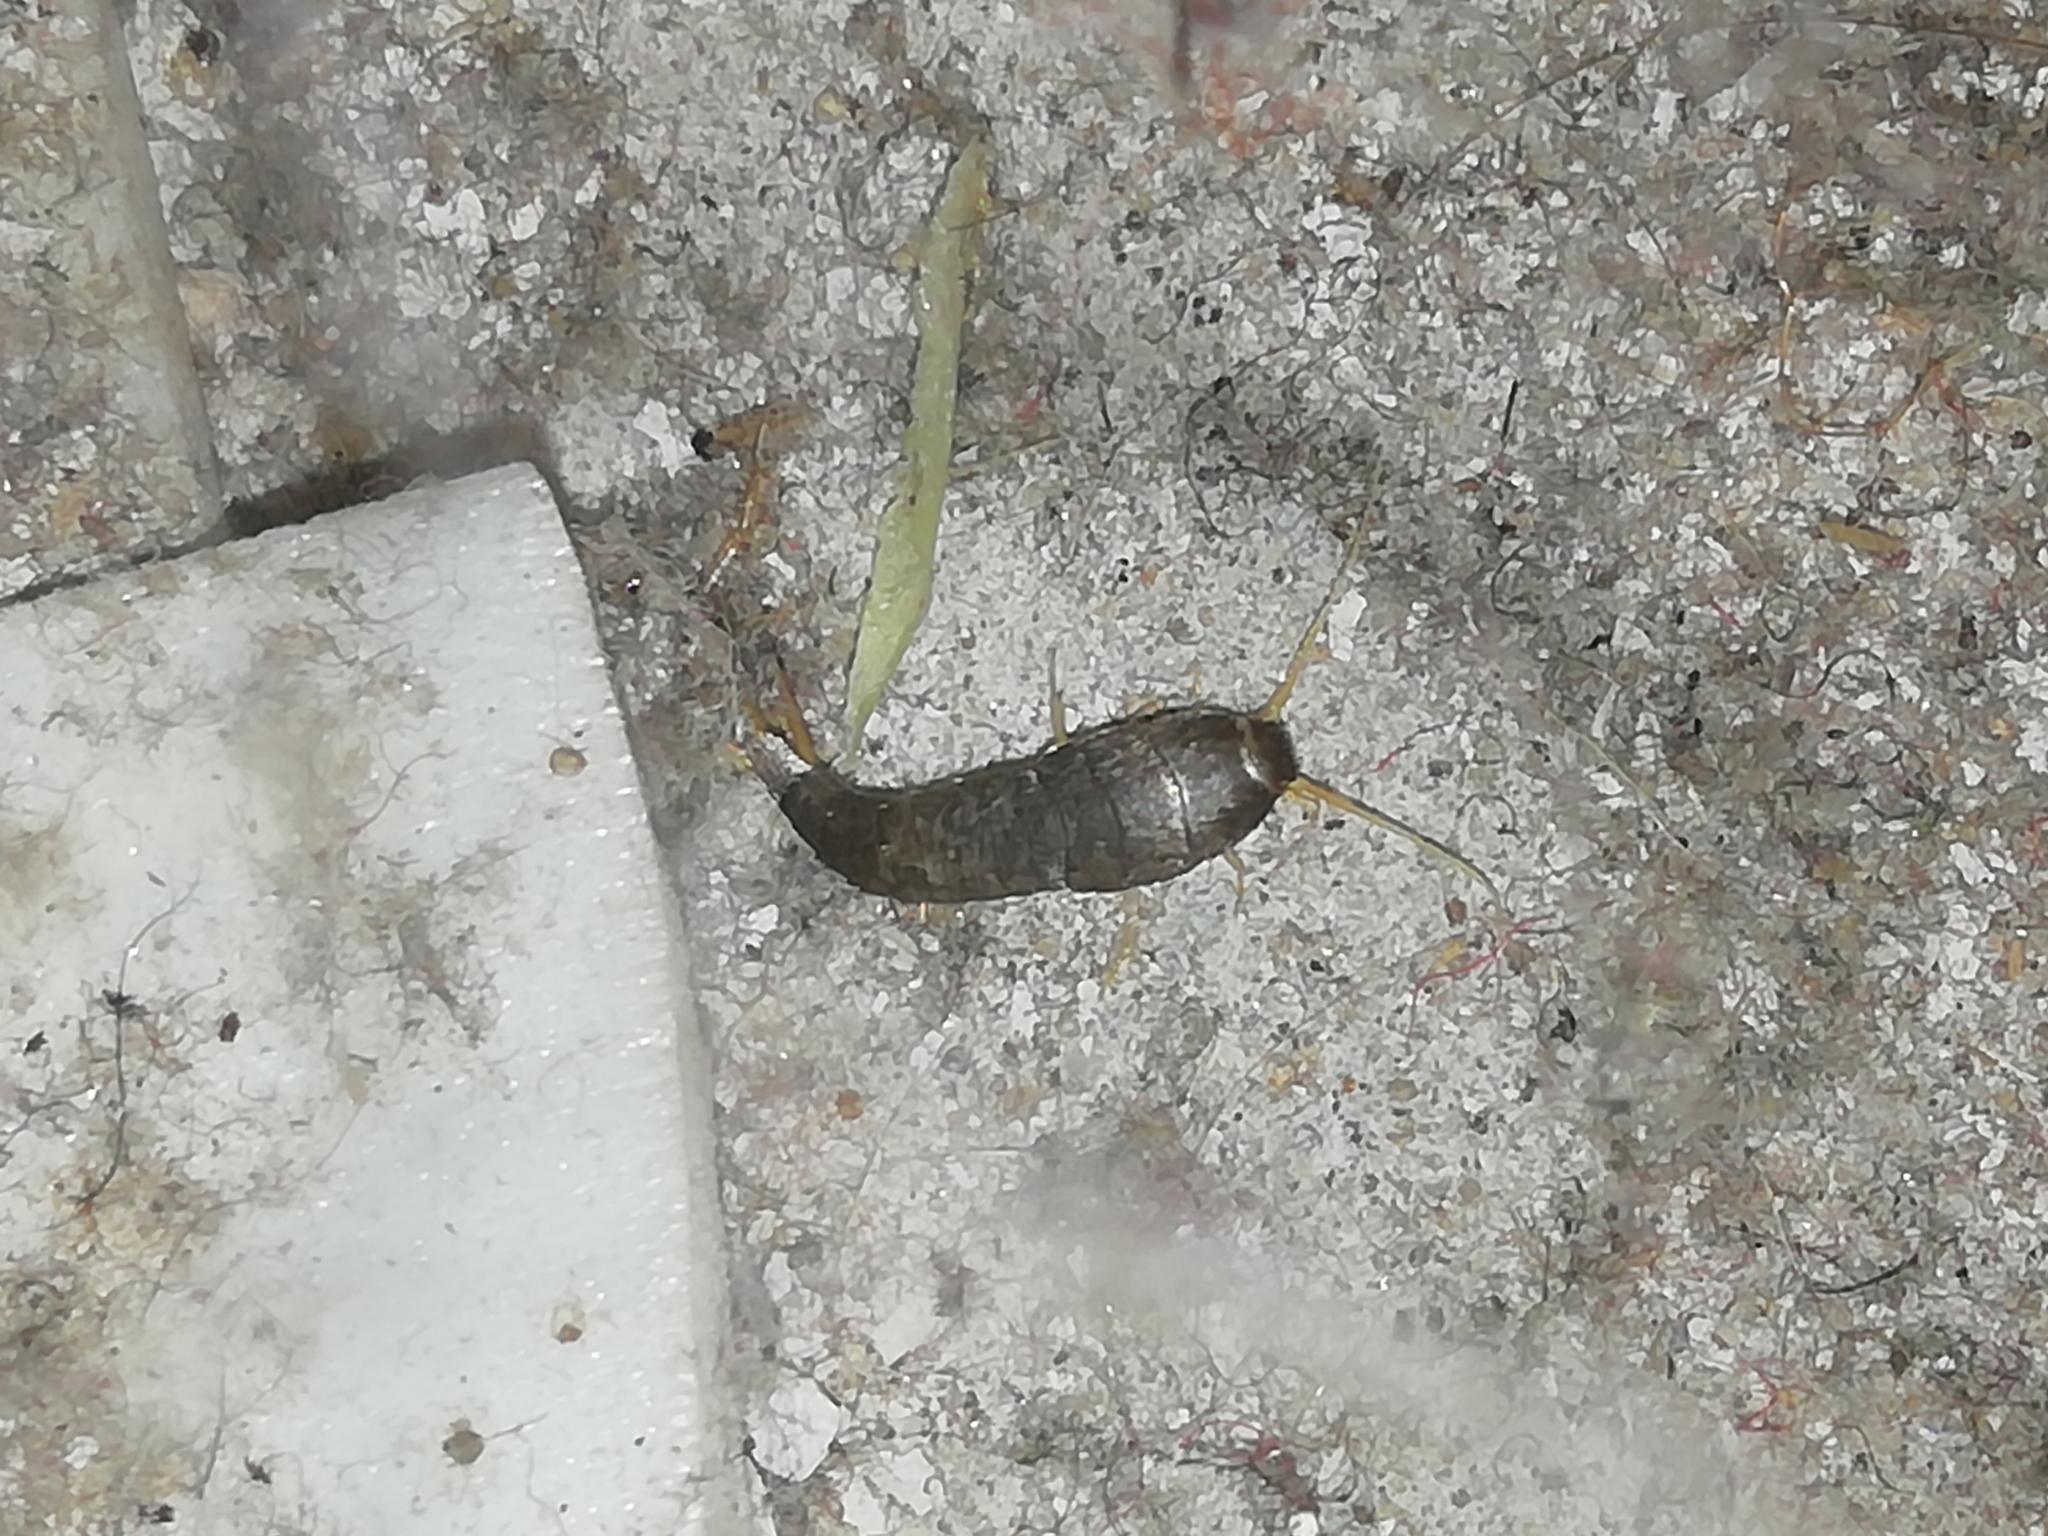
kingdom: Animalia
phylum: Arthropoda
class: Insecta
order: Zygentoma
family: Lepismatidae
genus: Lepisma
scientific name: Lepisma saccharinum
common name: Silverfish
